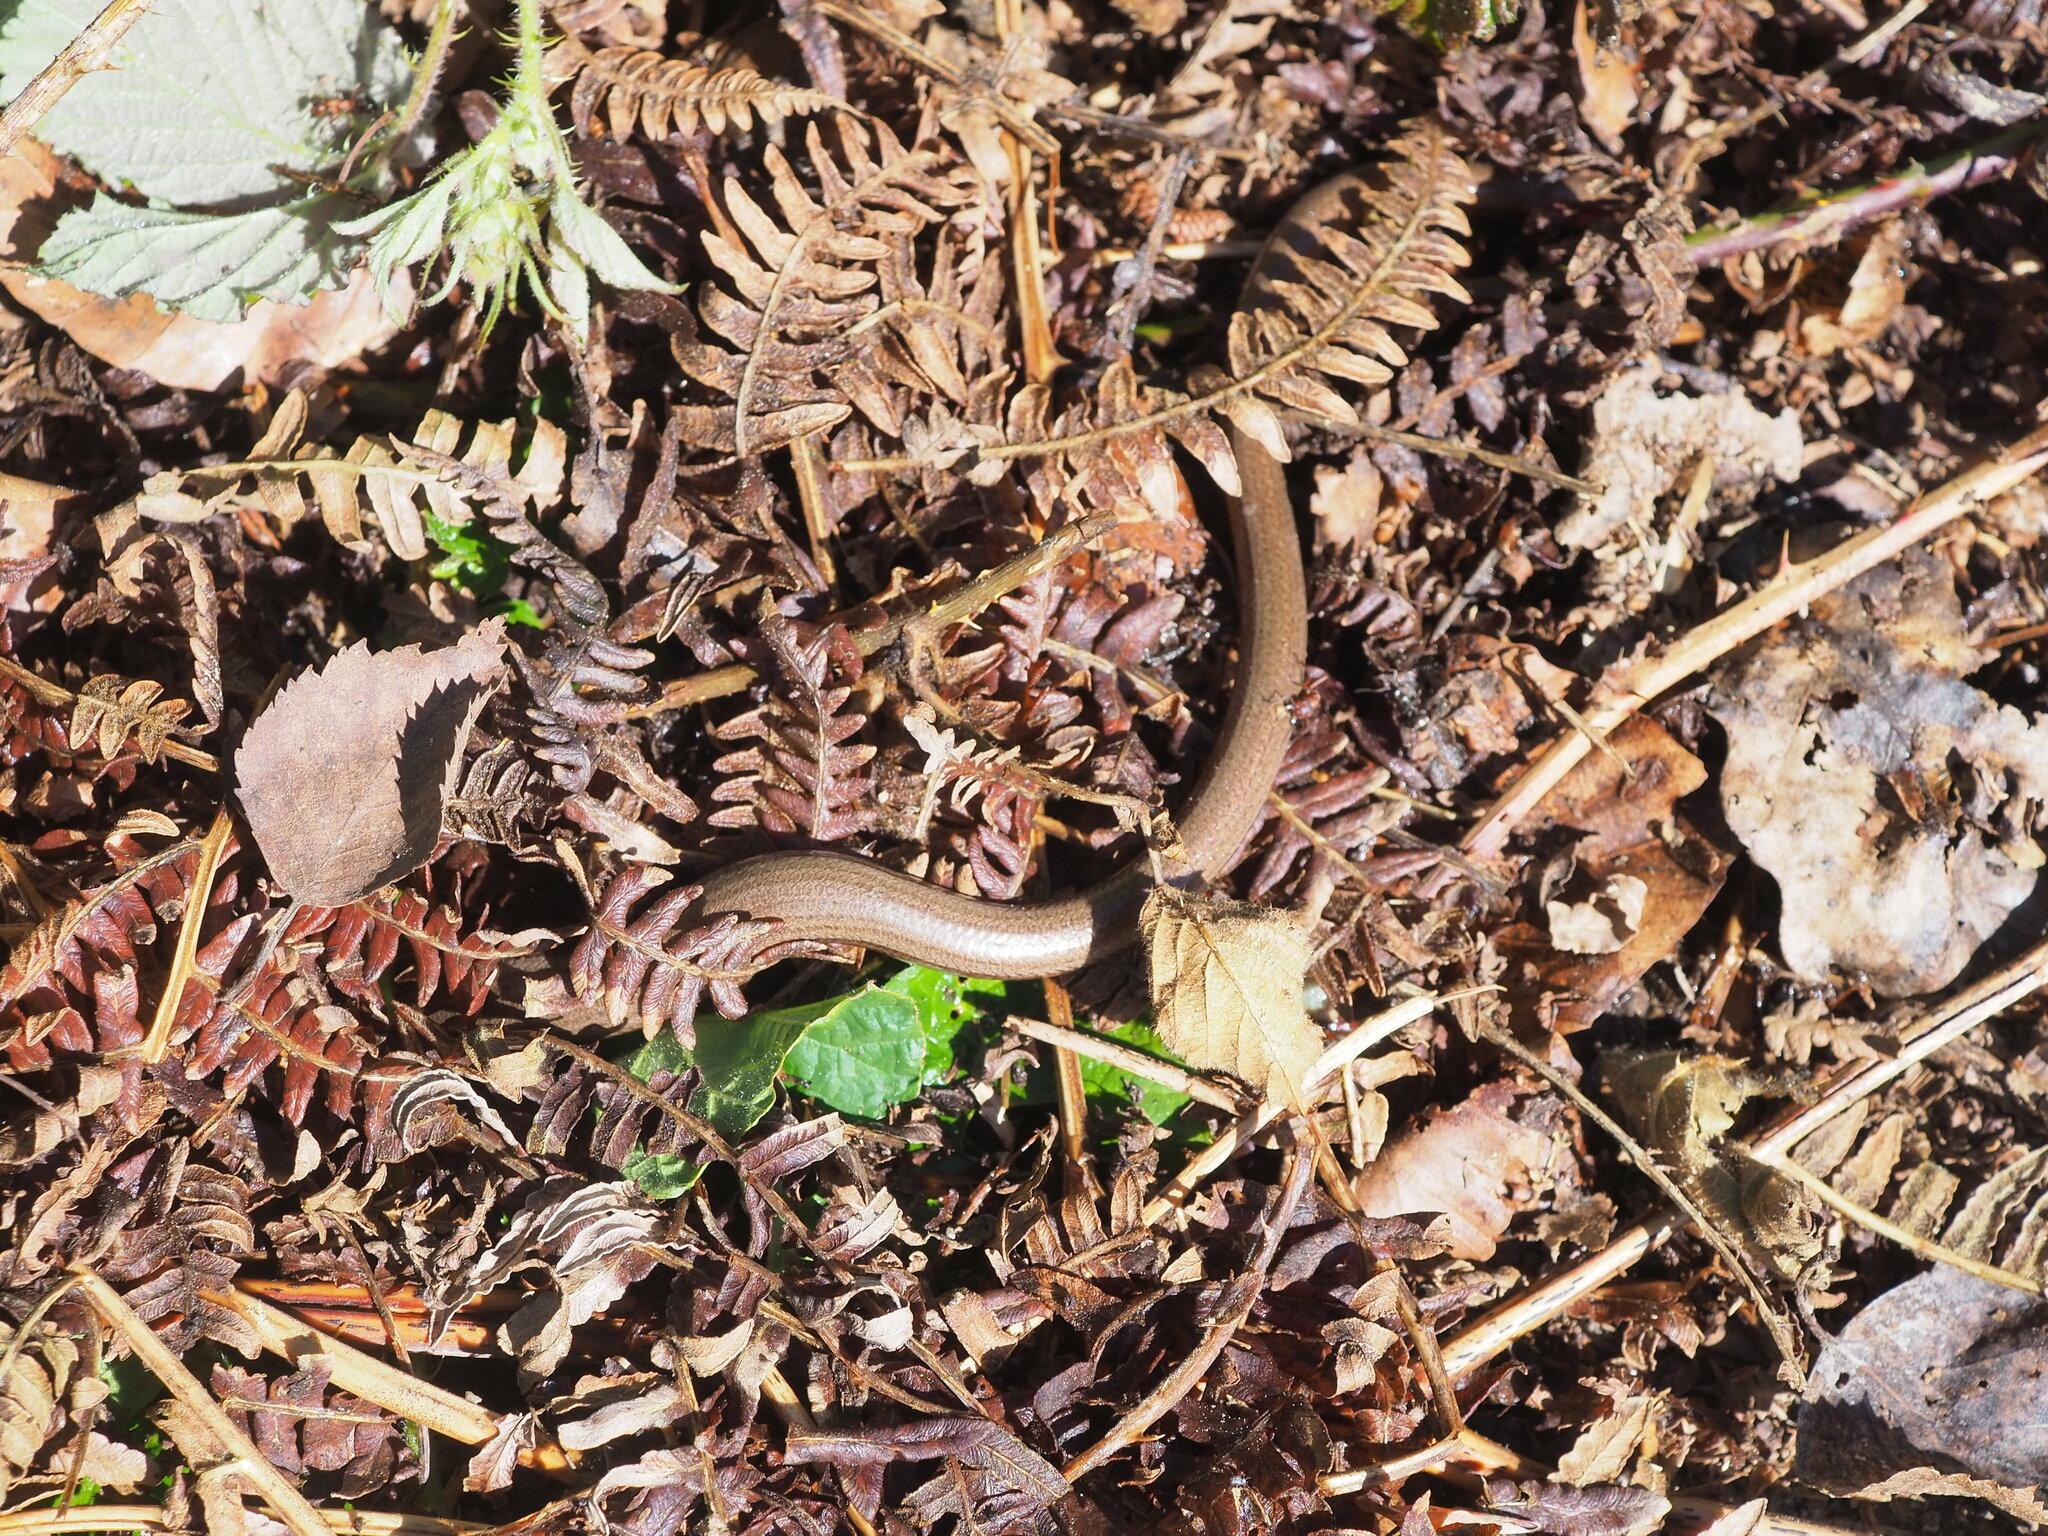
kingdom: Animalia
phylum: Chordata
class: Squamata
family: Anguidae
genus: Anguis
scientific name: Anguis fragilis
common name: Slow worm
